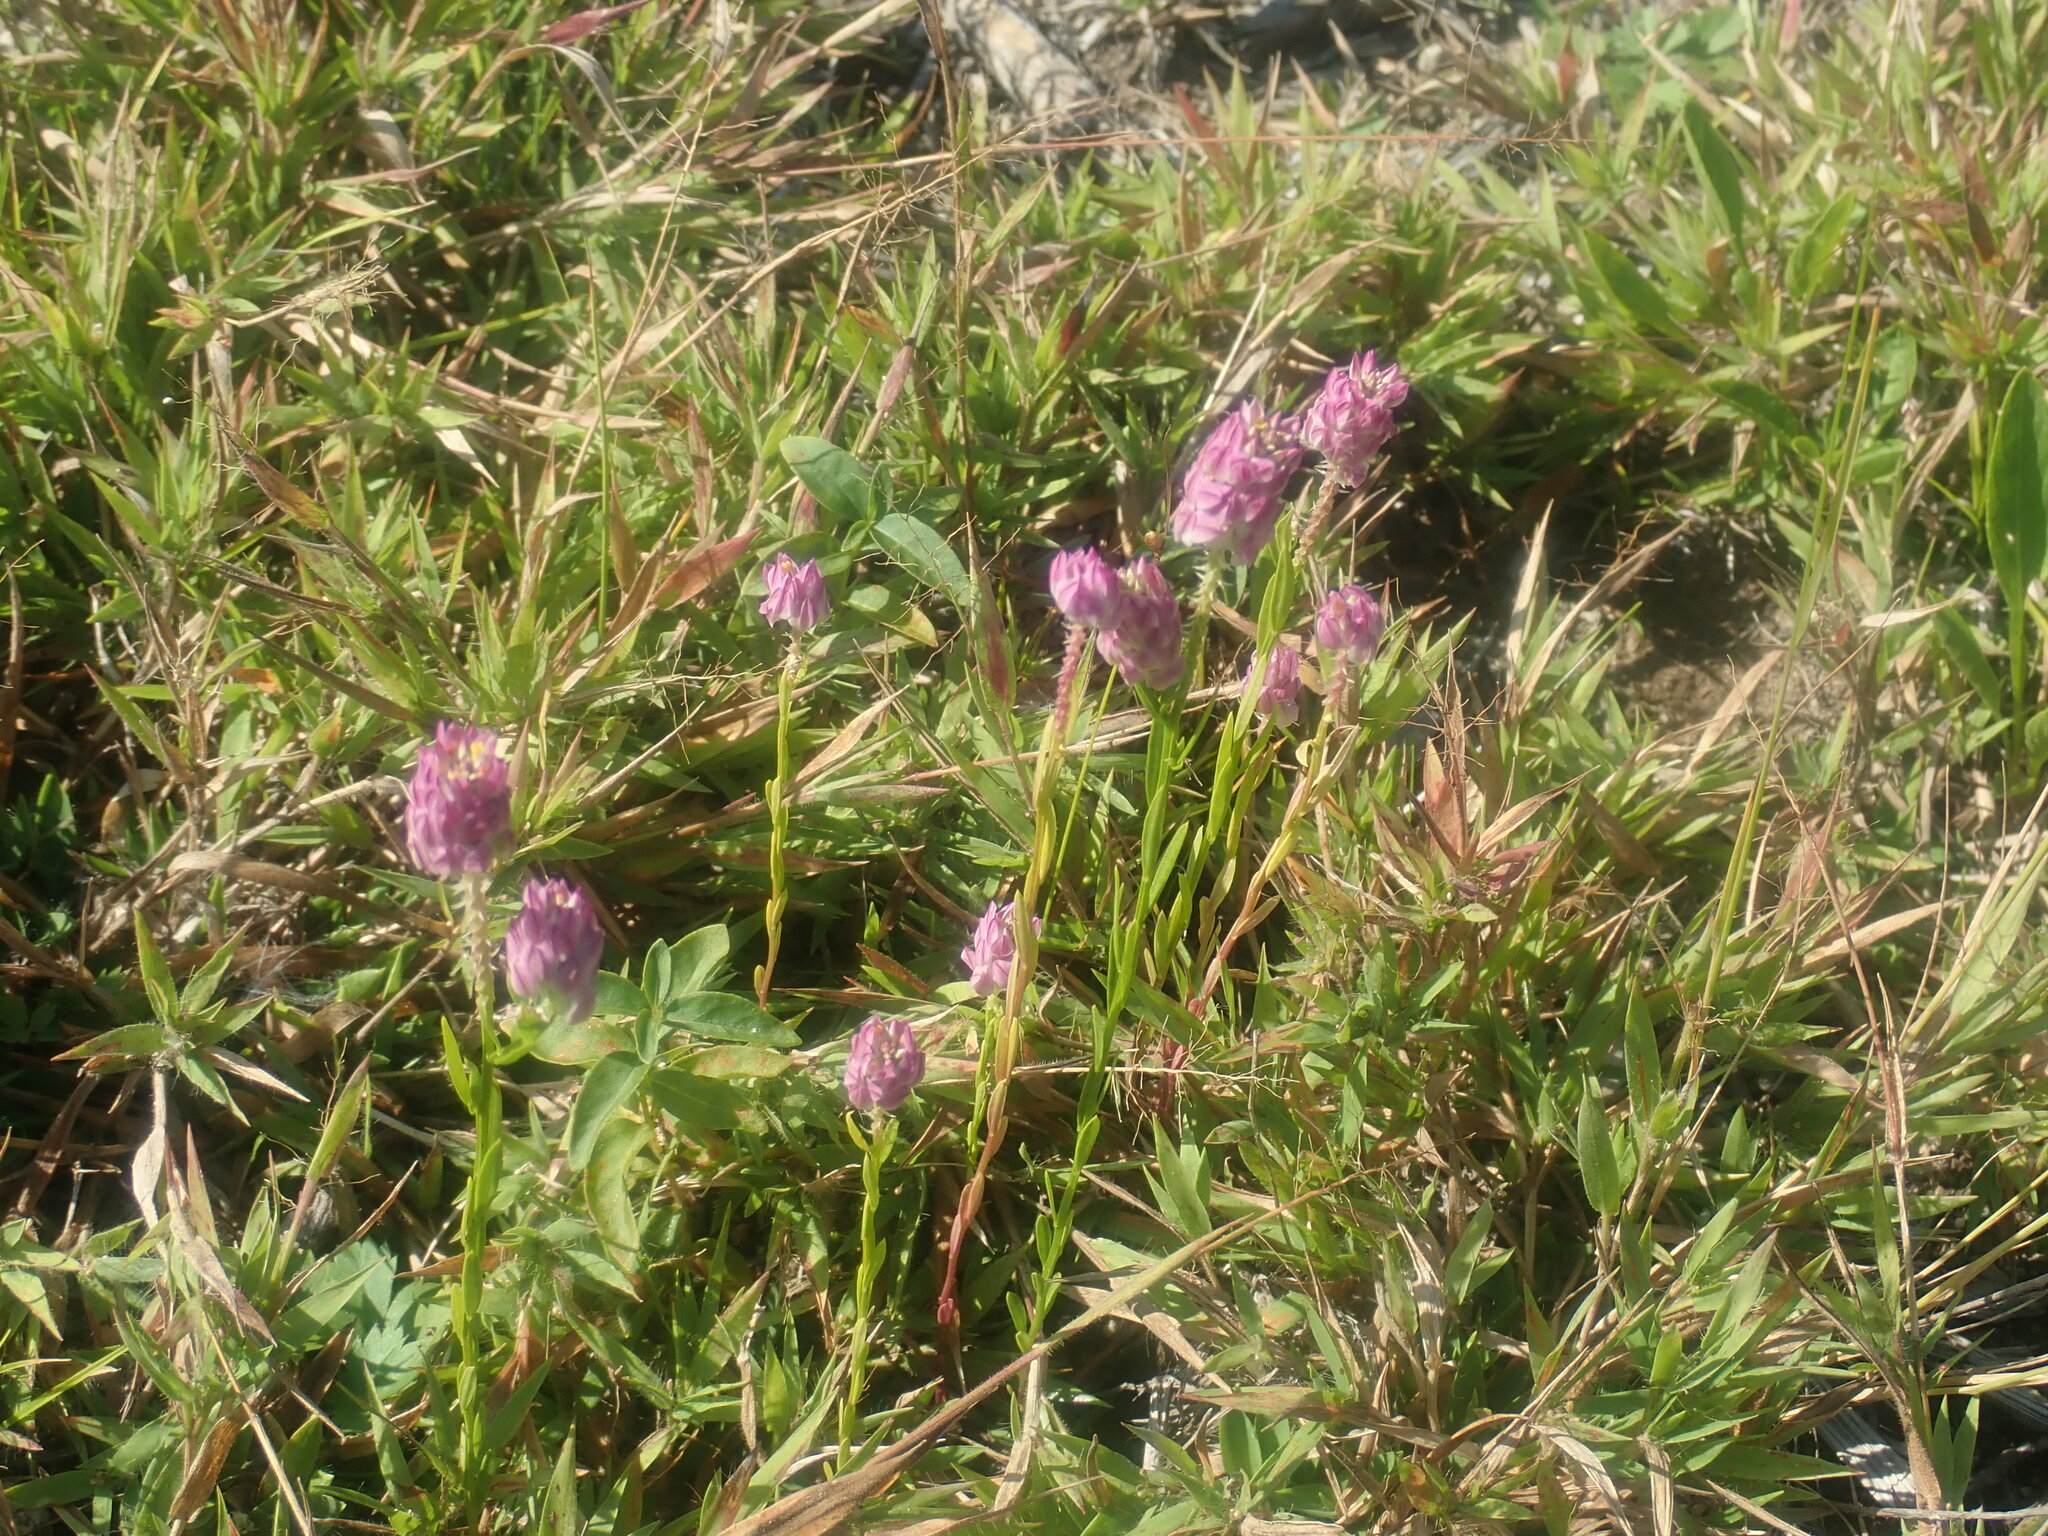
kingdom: Plantae
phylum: Tracheophyta
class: Magnoliopsida
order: Fabales
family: Polygalaceae
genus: Polygala
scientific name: Polygala sanguinea
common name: Blood milkwort
